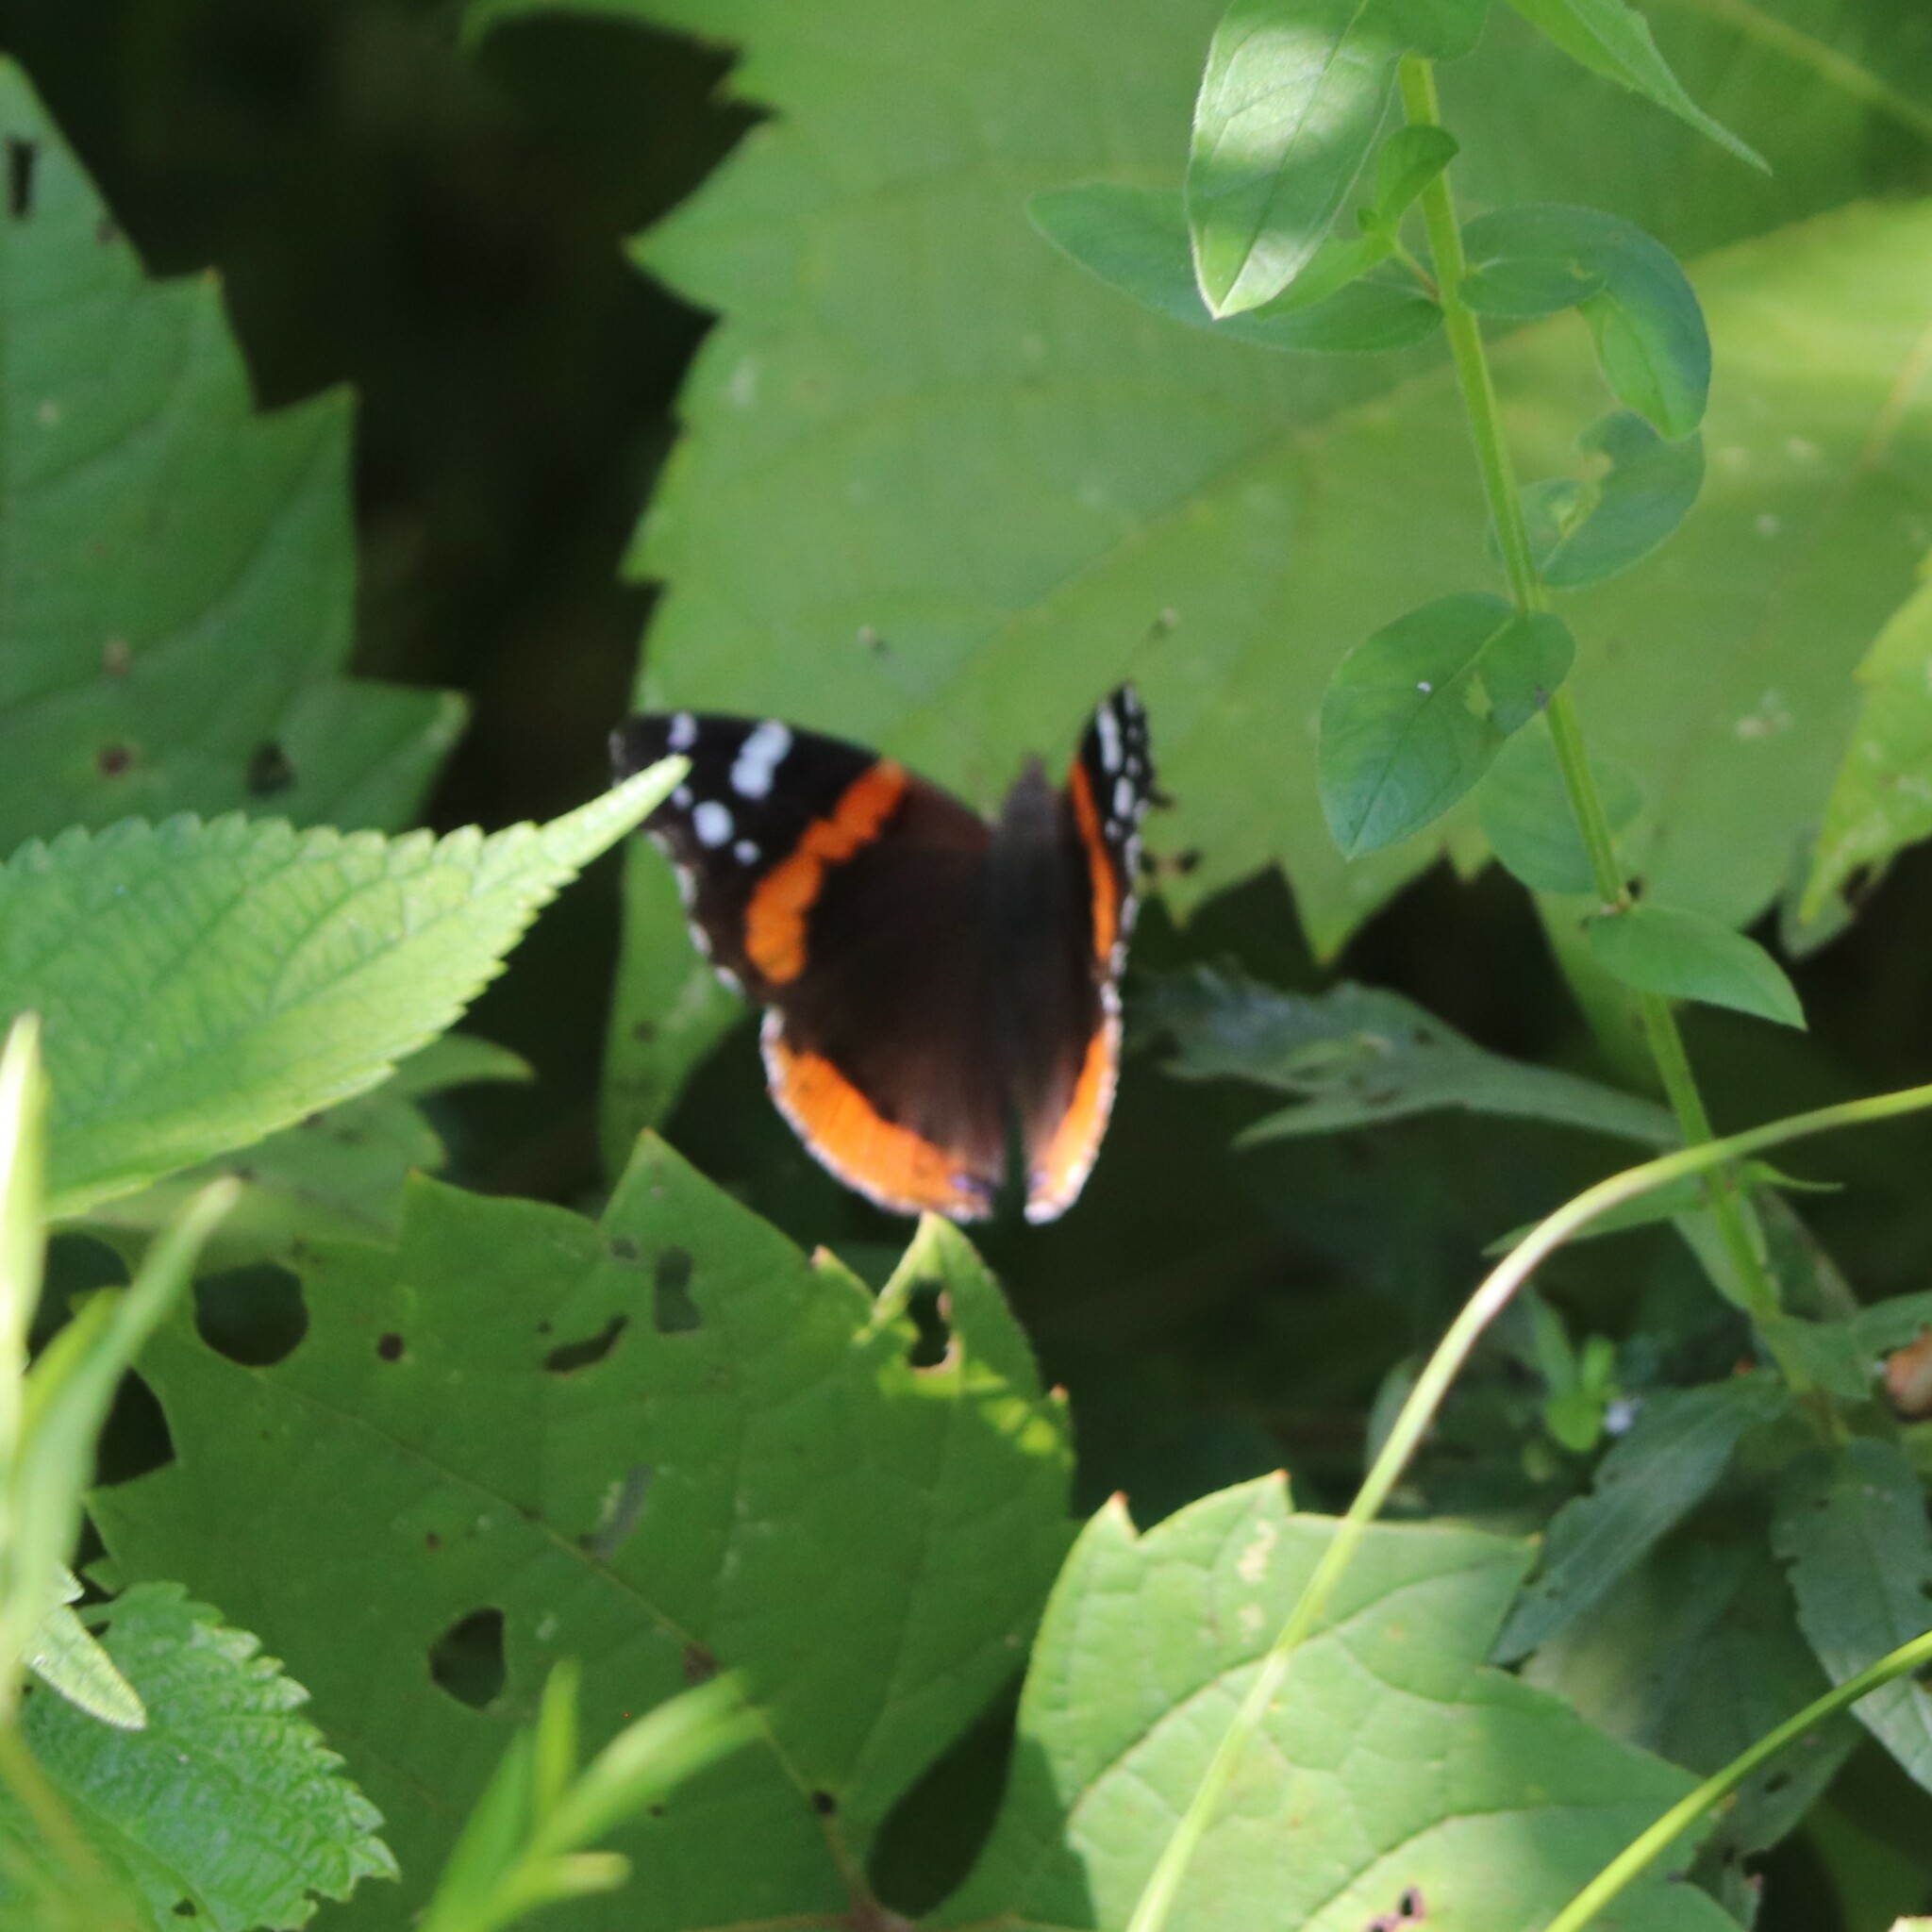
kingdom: Animalia
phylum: Arthropoda
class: Insecta
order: Lepidoptera
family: Nymphalidae
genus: Vanessa
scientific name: Vanessa atalanta
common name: Red admiral
